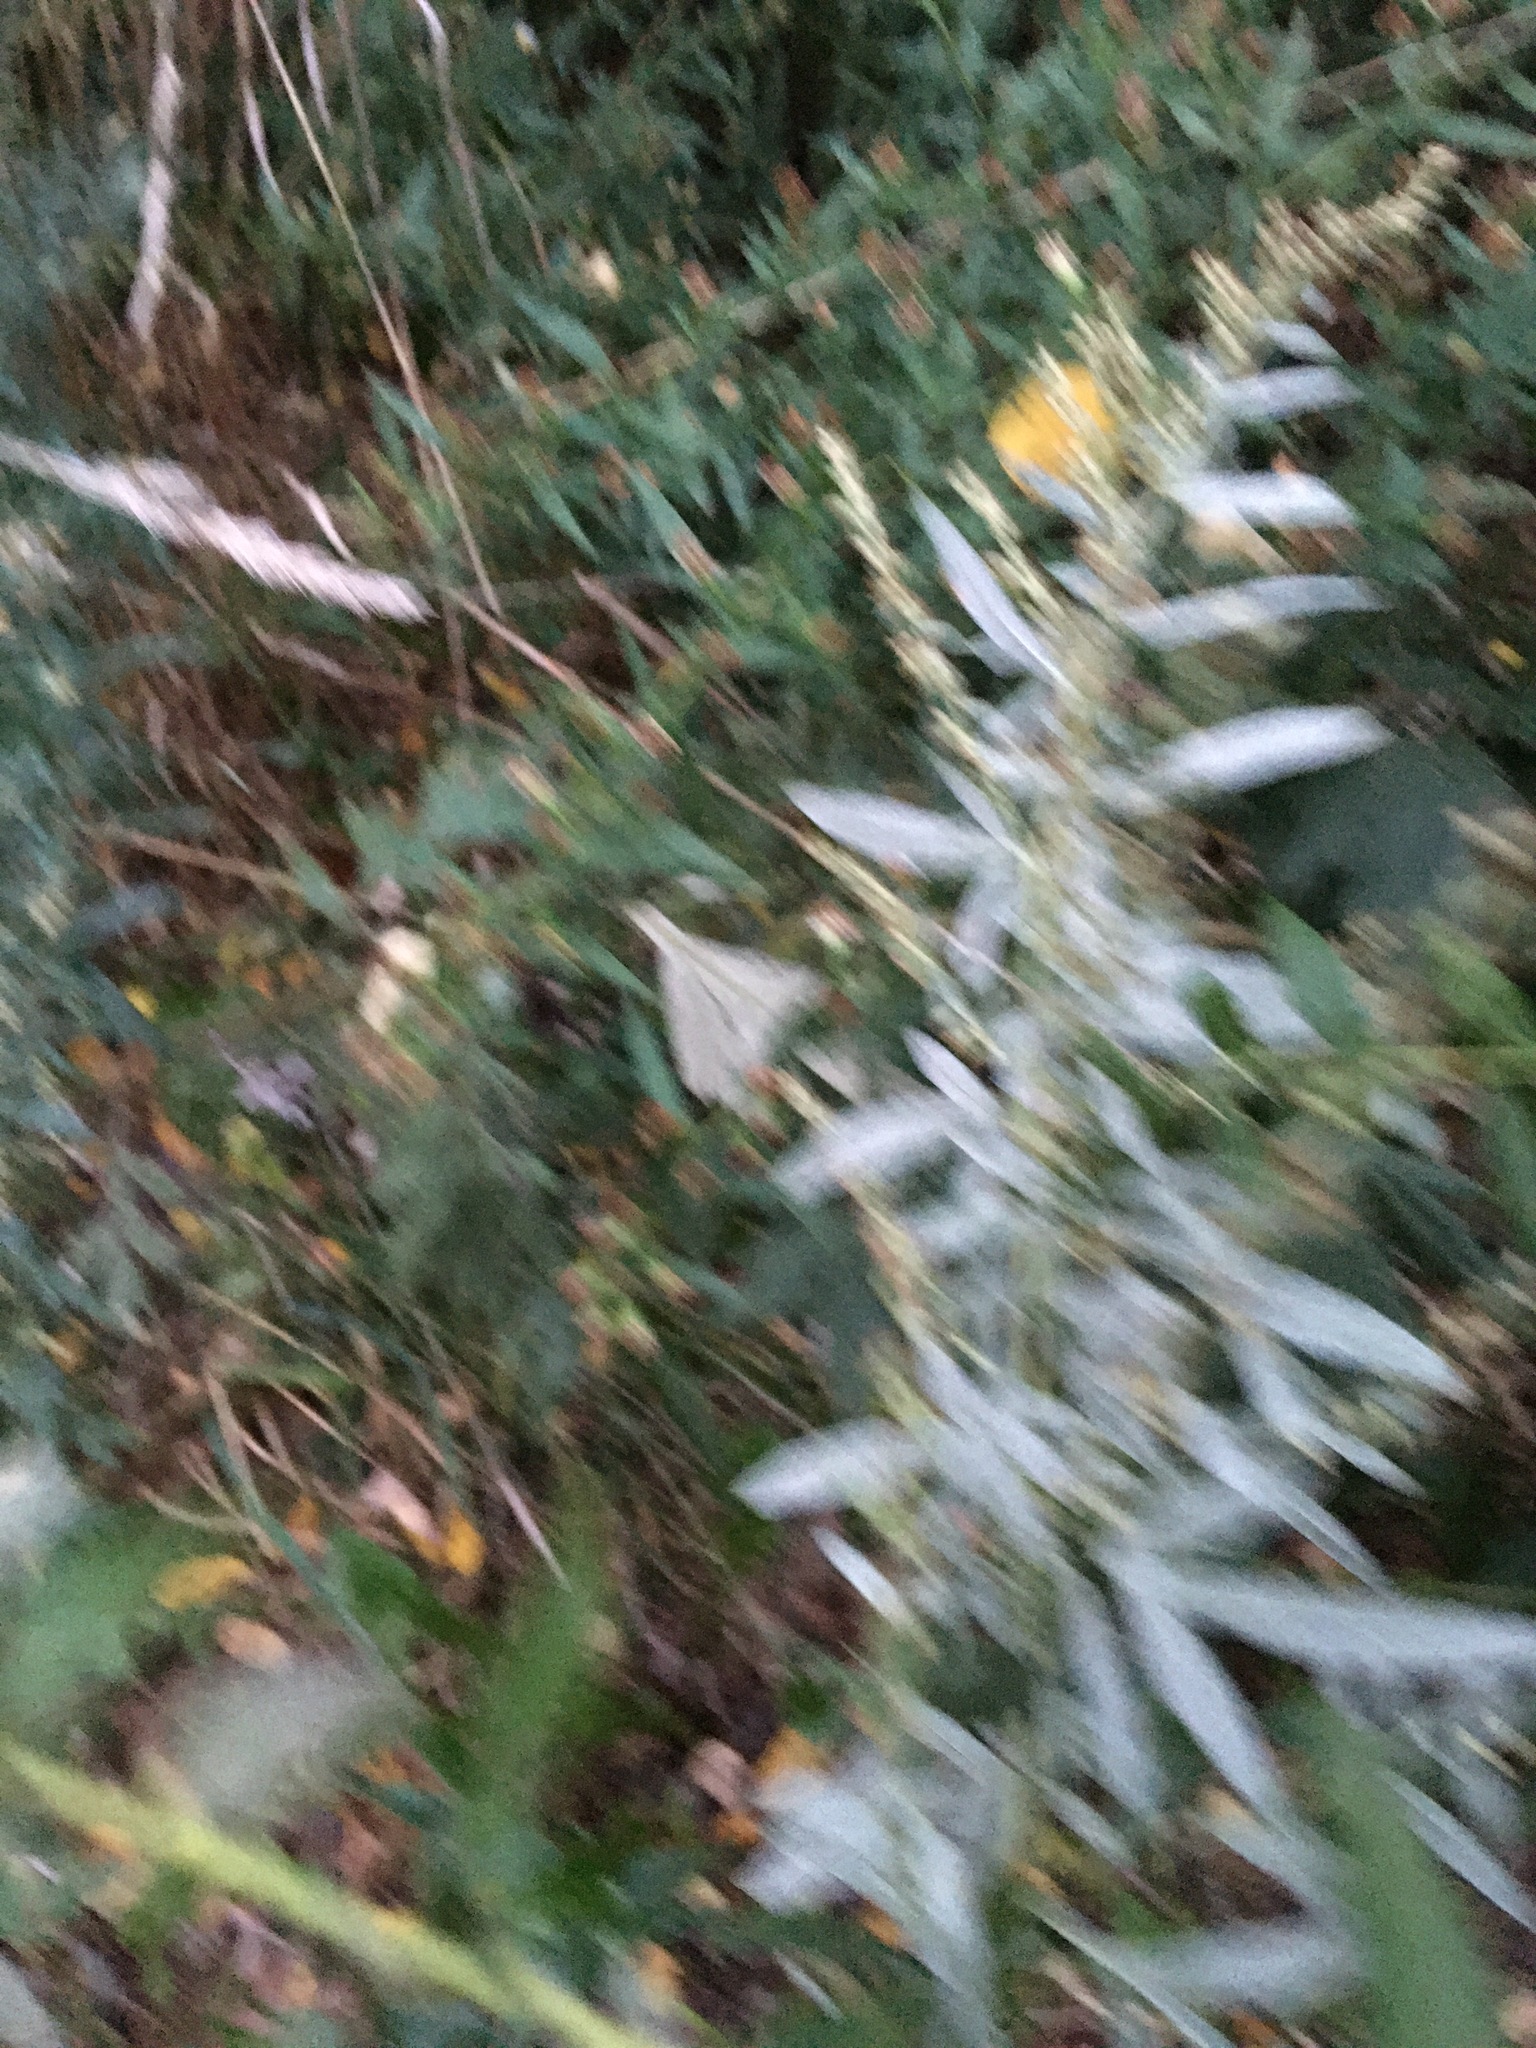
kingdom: Plantae
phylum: Tracheophyta
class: Magnoliopsida
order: Asterales
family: Asteraceae
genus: Artemisia
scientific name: Artemisia vulgaris
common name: Mugwort
